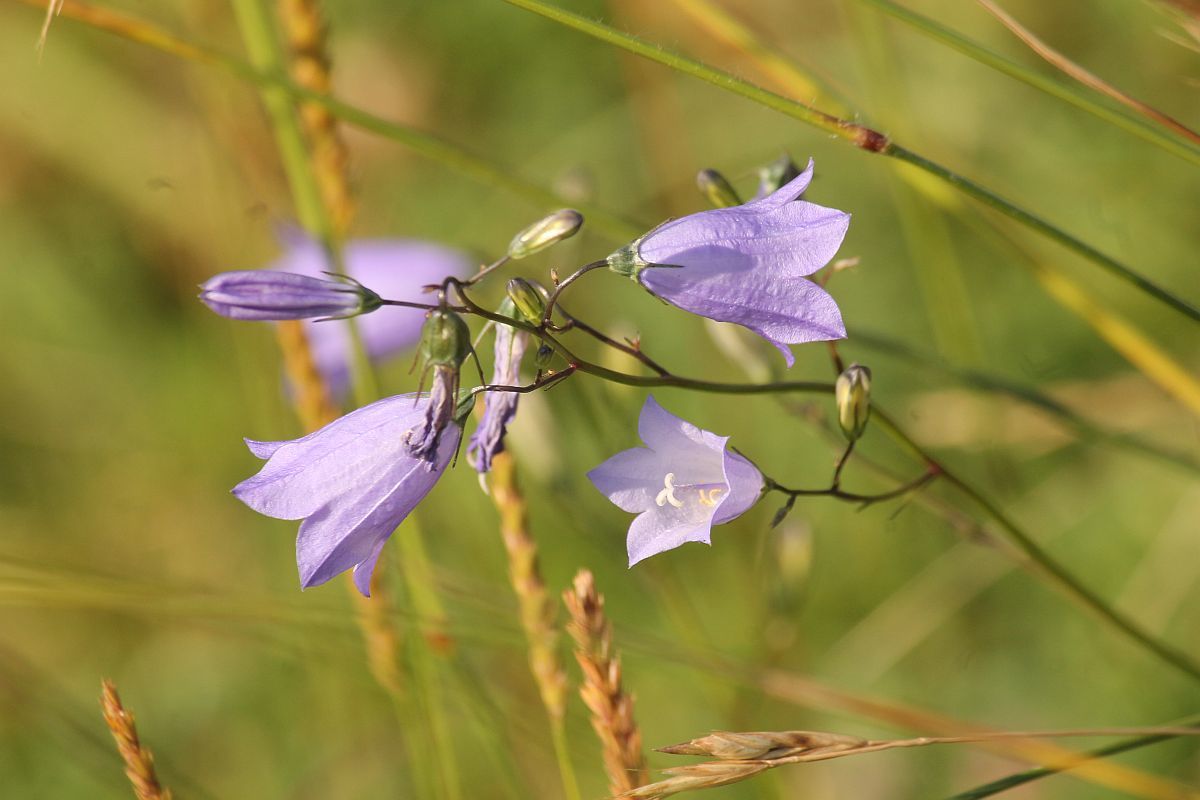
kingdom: Plantae
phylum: Tracheophyta
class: Magnoliopsida
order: Asterales
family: Campanulaceae
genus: Campanula
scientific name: Campanula rotundifolia
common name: Harebell
